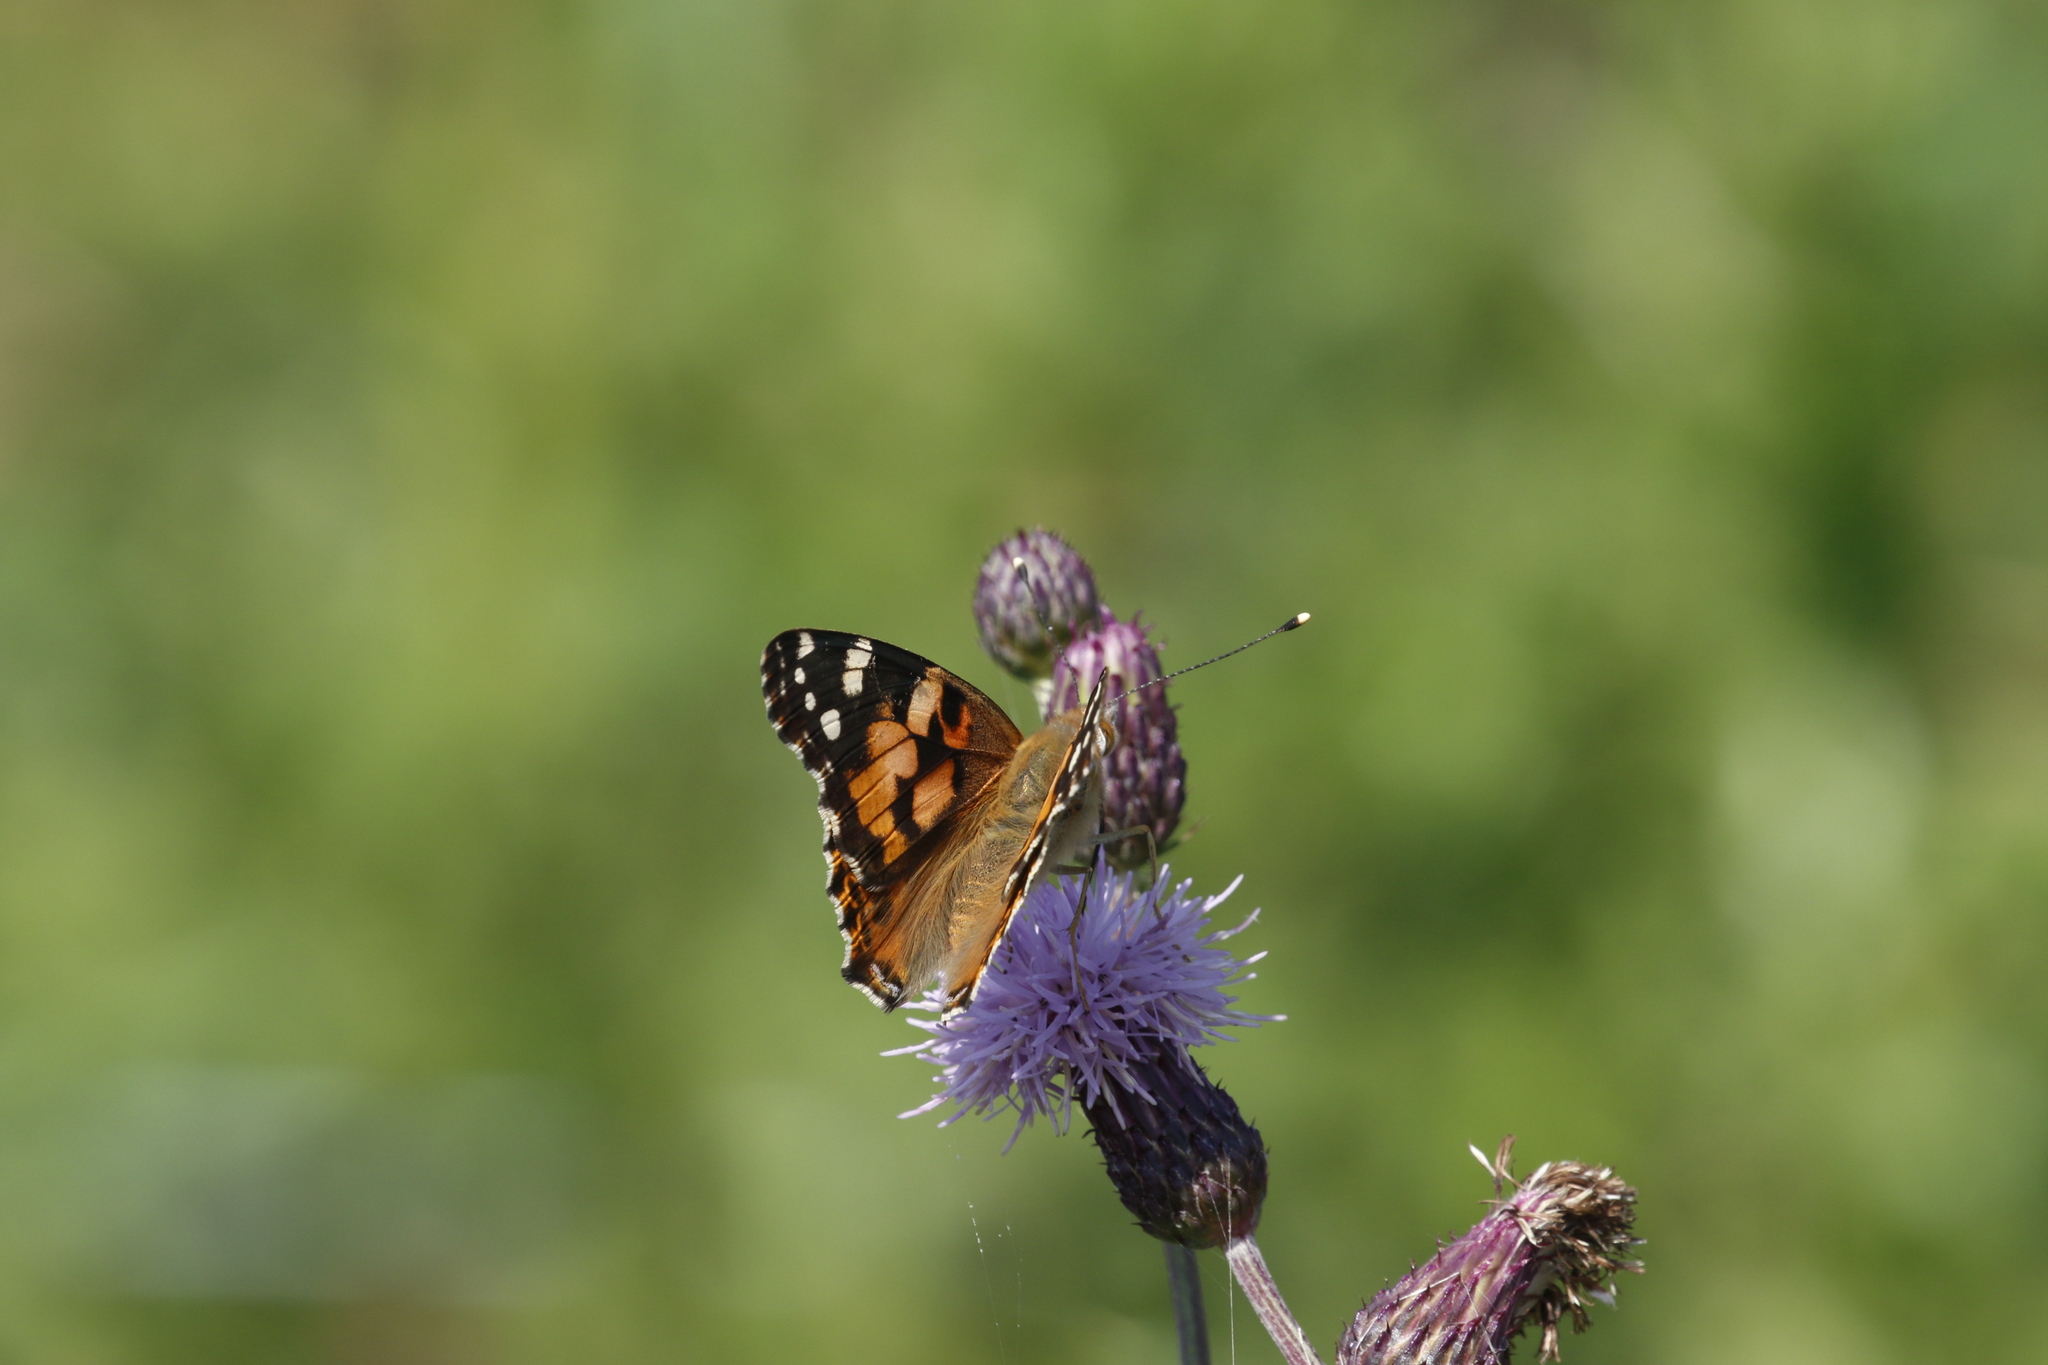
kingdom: Animalia
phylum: Arthropoda
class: Insecta
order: Lepidoptera
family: Nymphalidae
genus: Vanessa
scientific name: Vanessa cardui
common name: Painted lady
